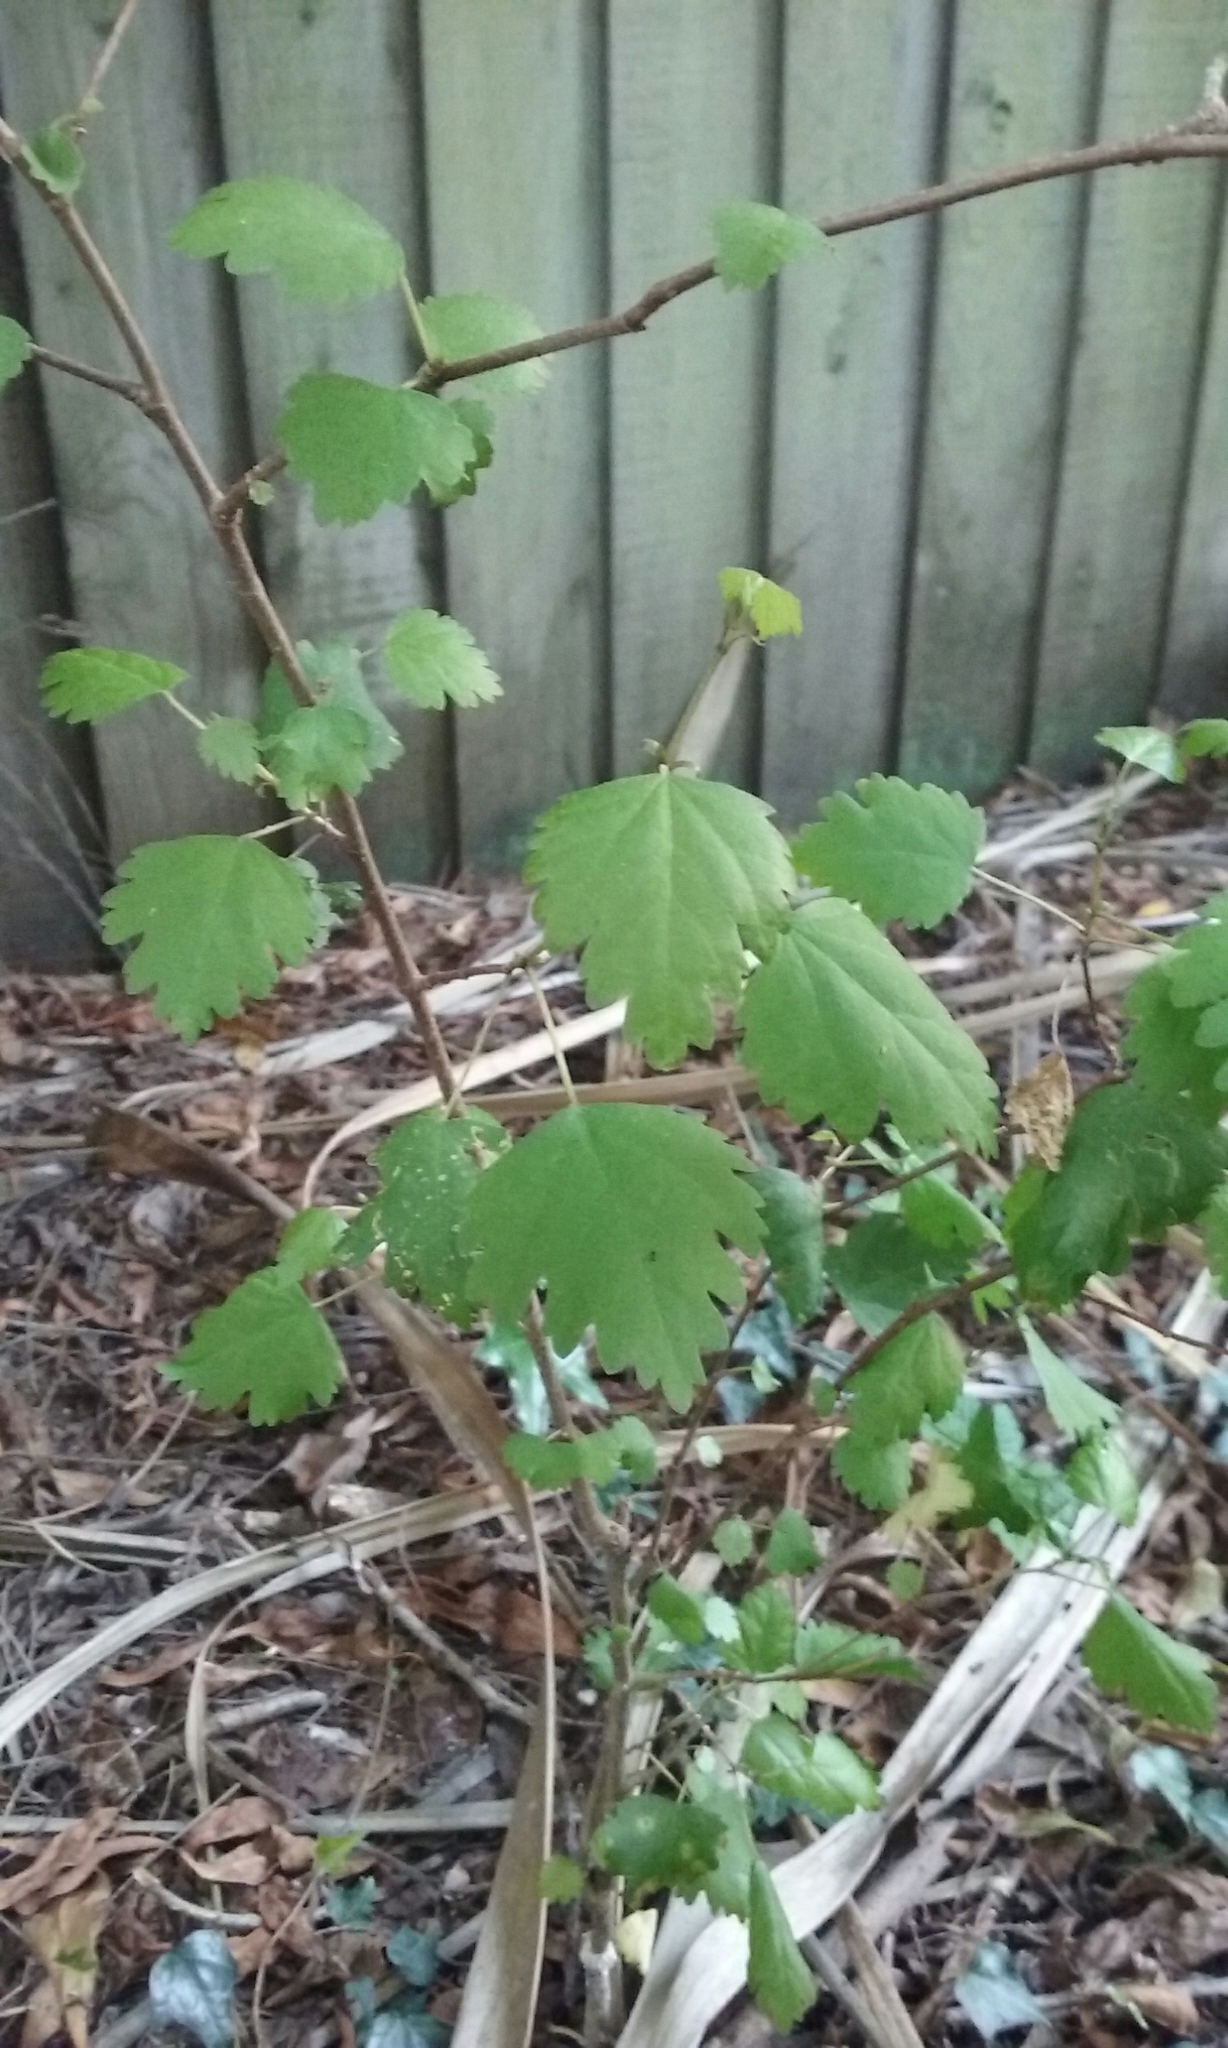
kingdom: Plantae
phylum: Tracheophyta
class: Magnoliopsida
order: Malvales
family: Malvaceae
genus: Plagianthus
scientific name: Plagianthus regius
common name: Manatu
